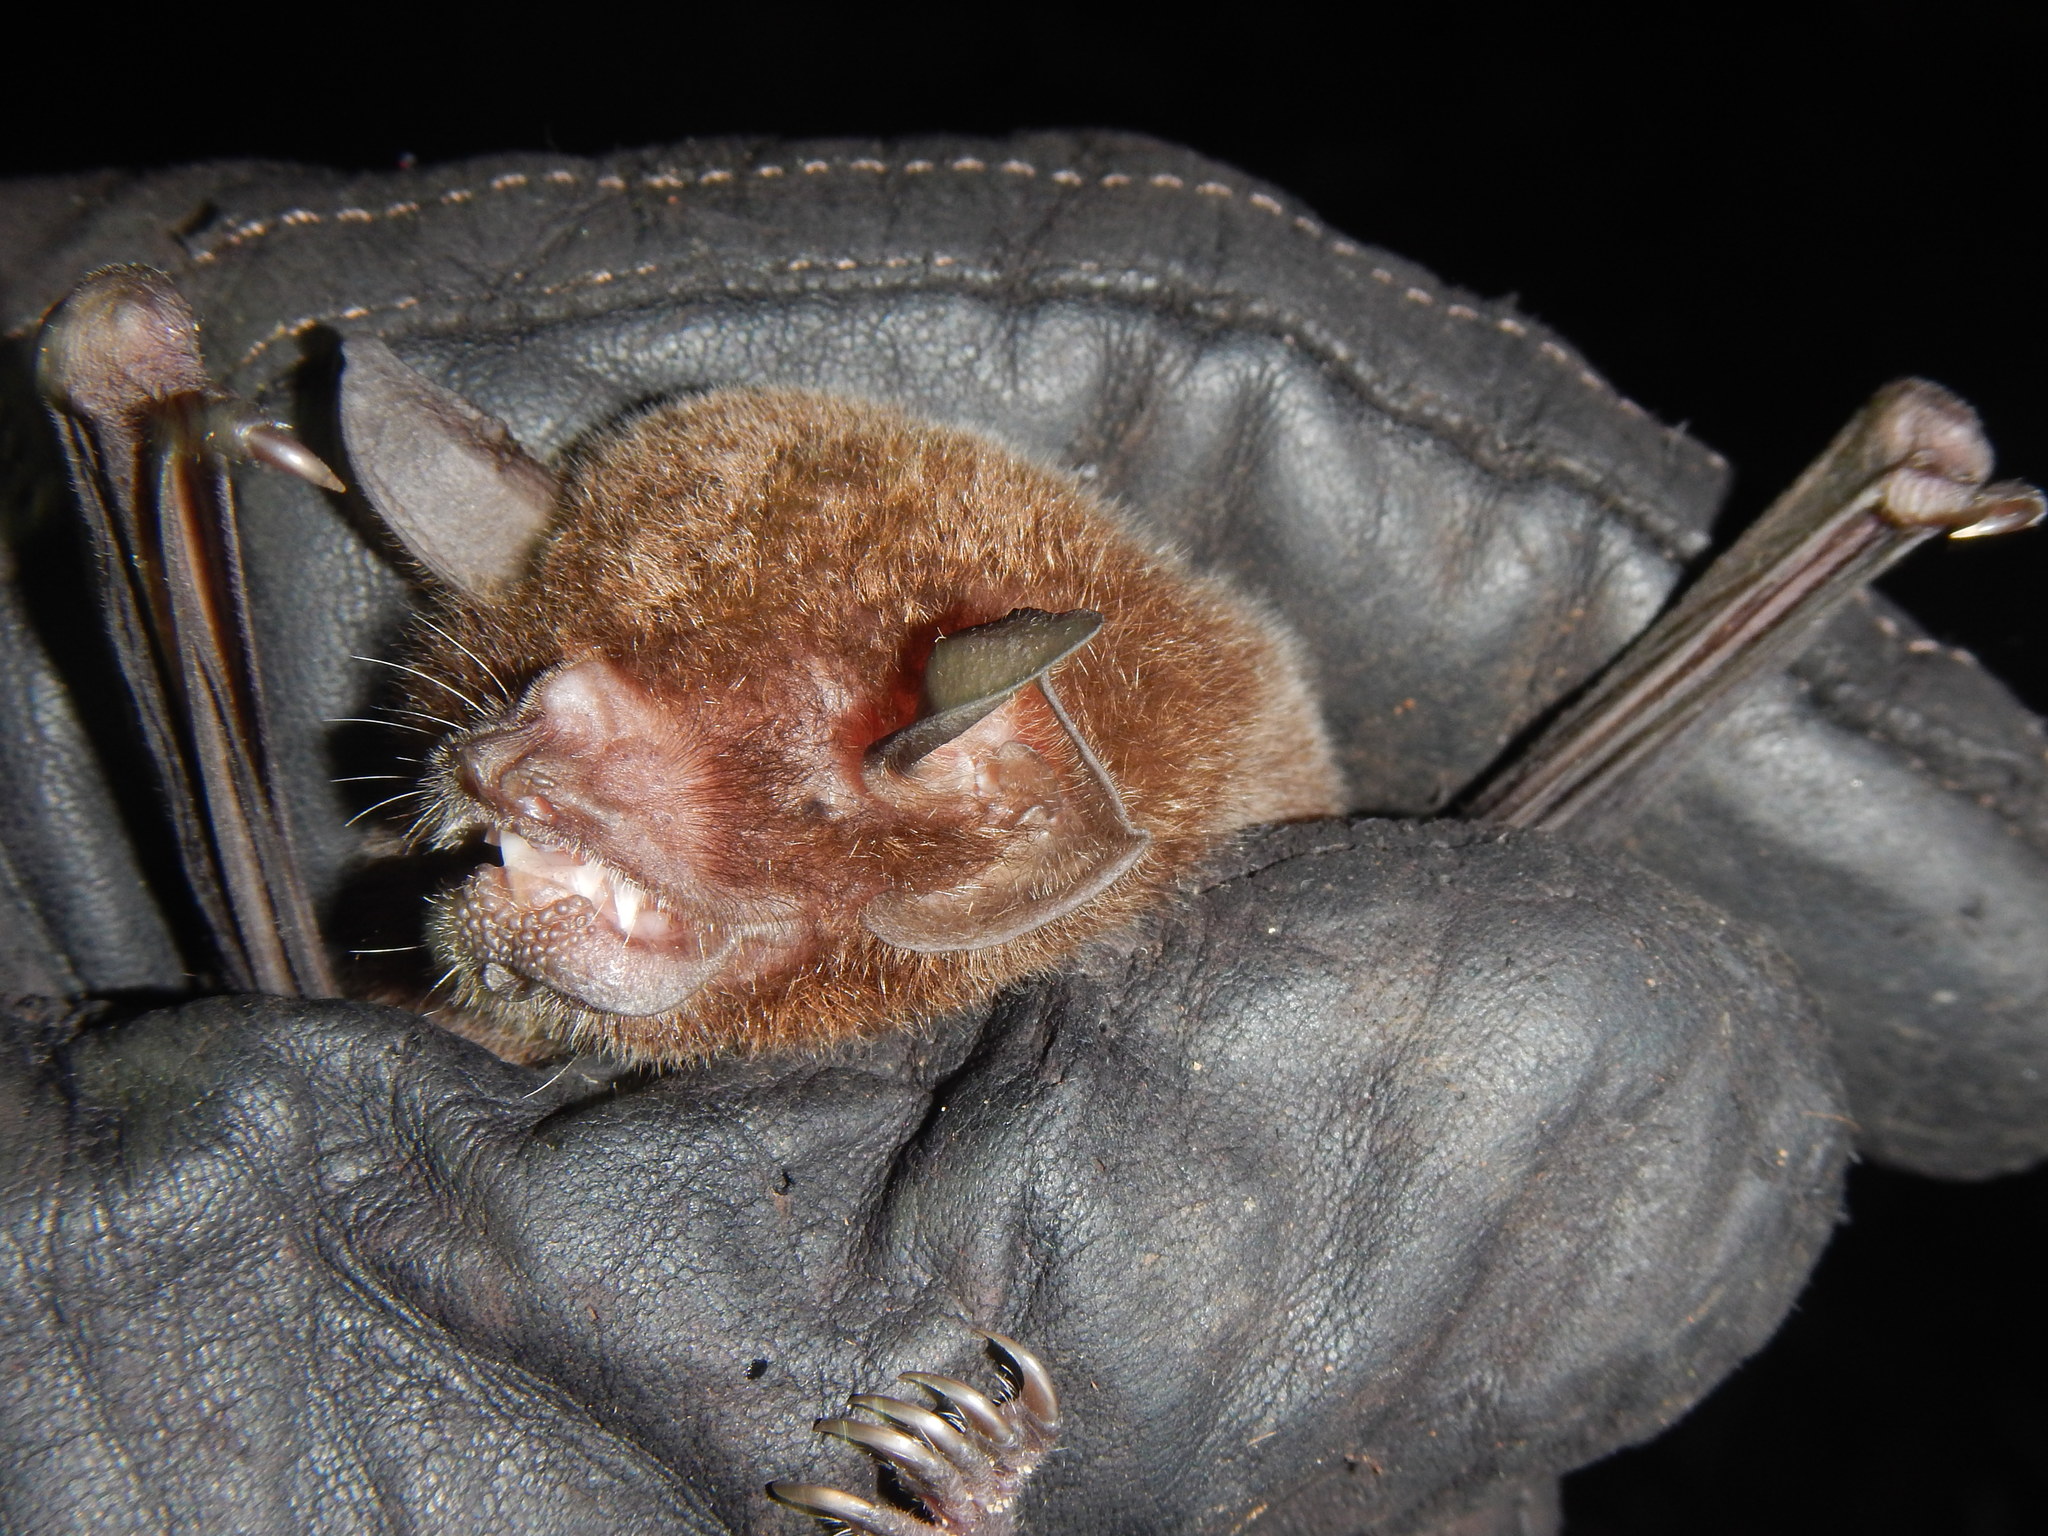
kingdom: Animalia
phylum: Chordata
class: Mammalia
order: Chiroptera
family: Mormoopidae
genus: Pteronotus
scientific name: Pteronotus rubiginosus
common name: Womurs common mustached bat
